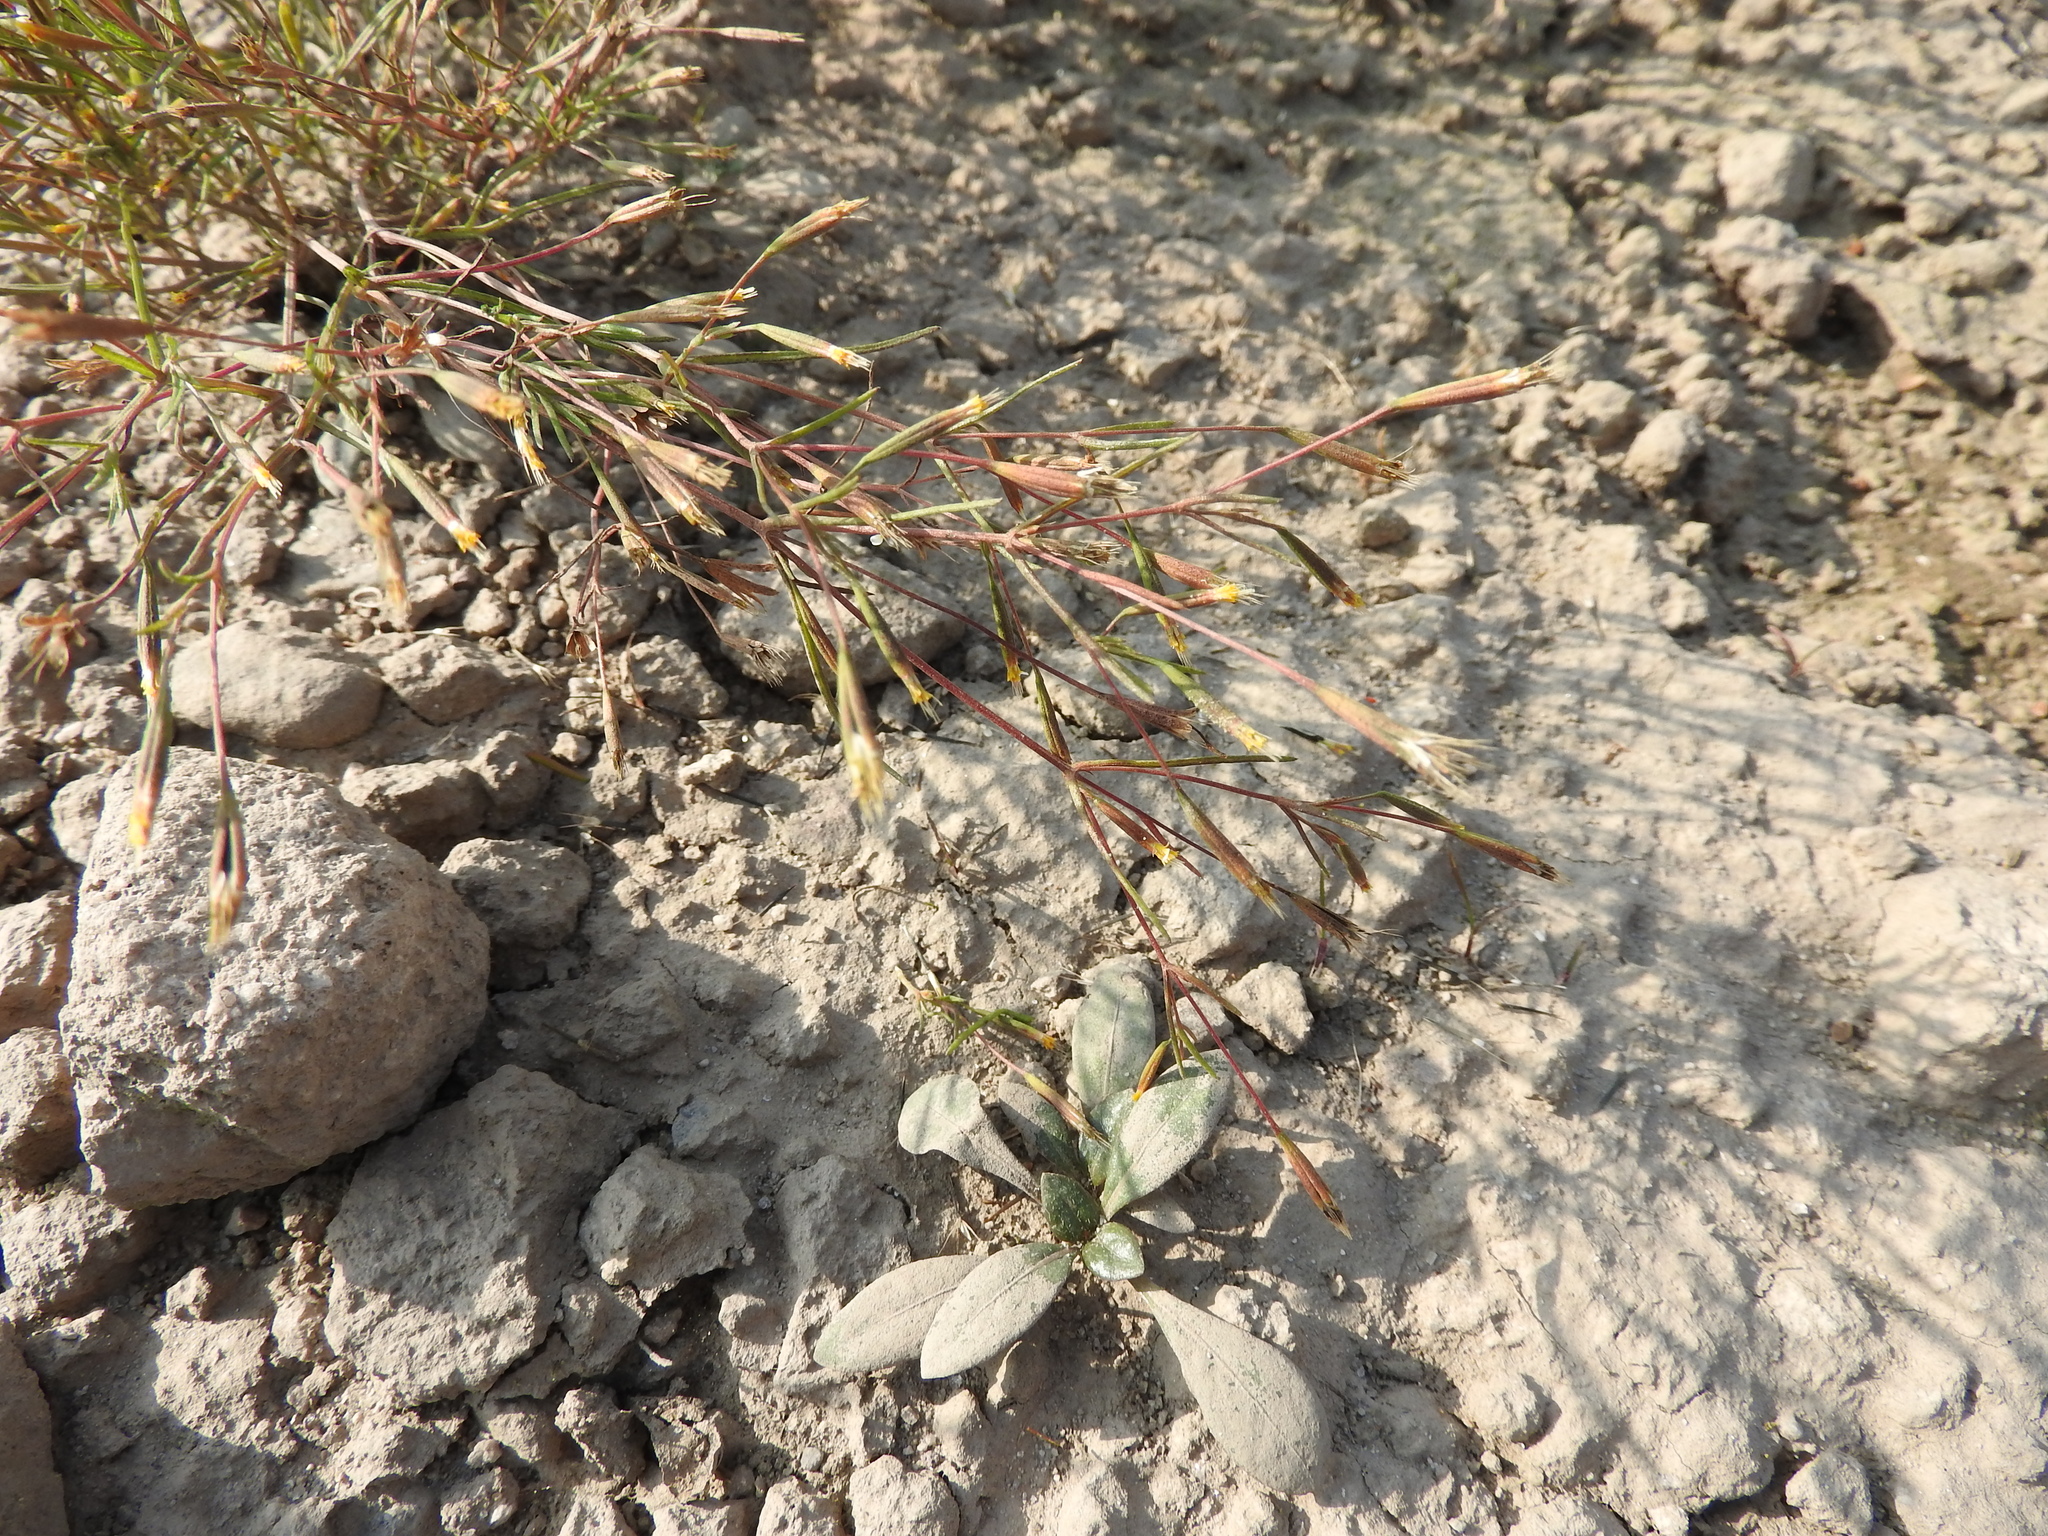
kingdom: Plantae
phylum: Tracheophyta
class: Magnoliopsida
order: Asterales
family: Asteraceae
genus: Tagetes
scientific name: Tagetes micrantha
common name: Licorice marigold
